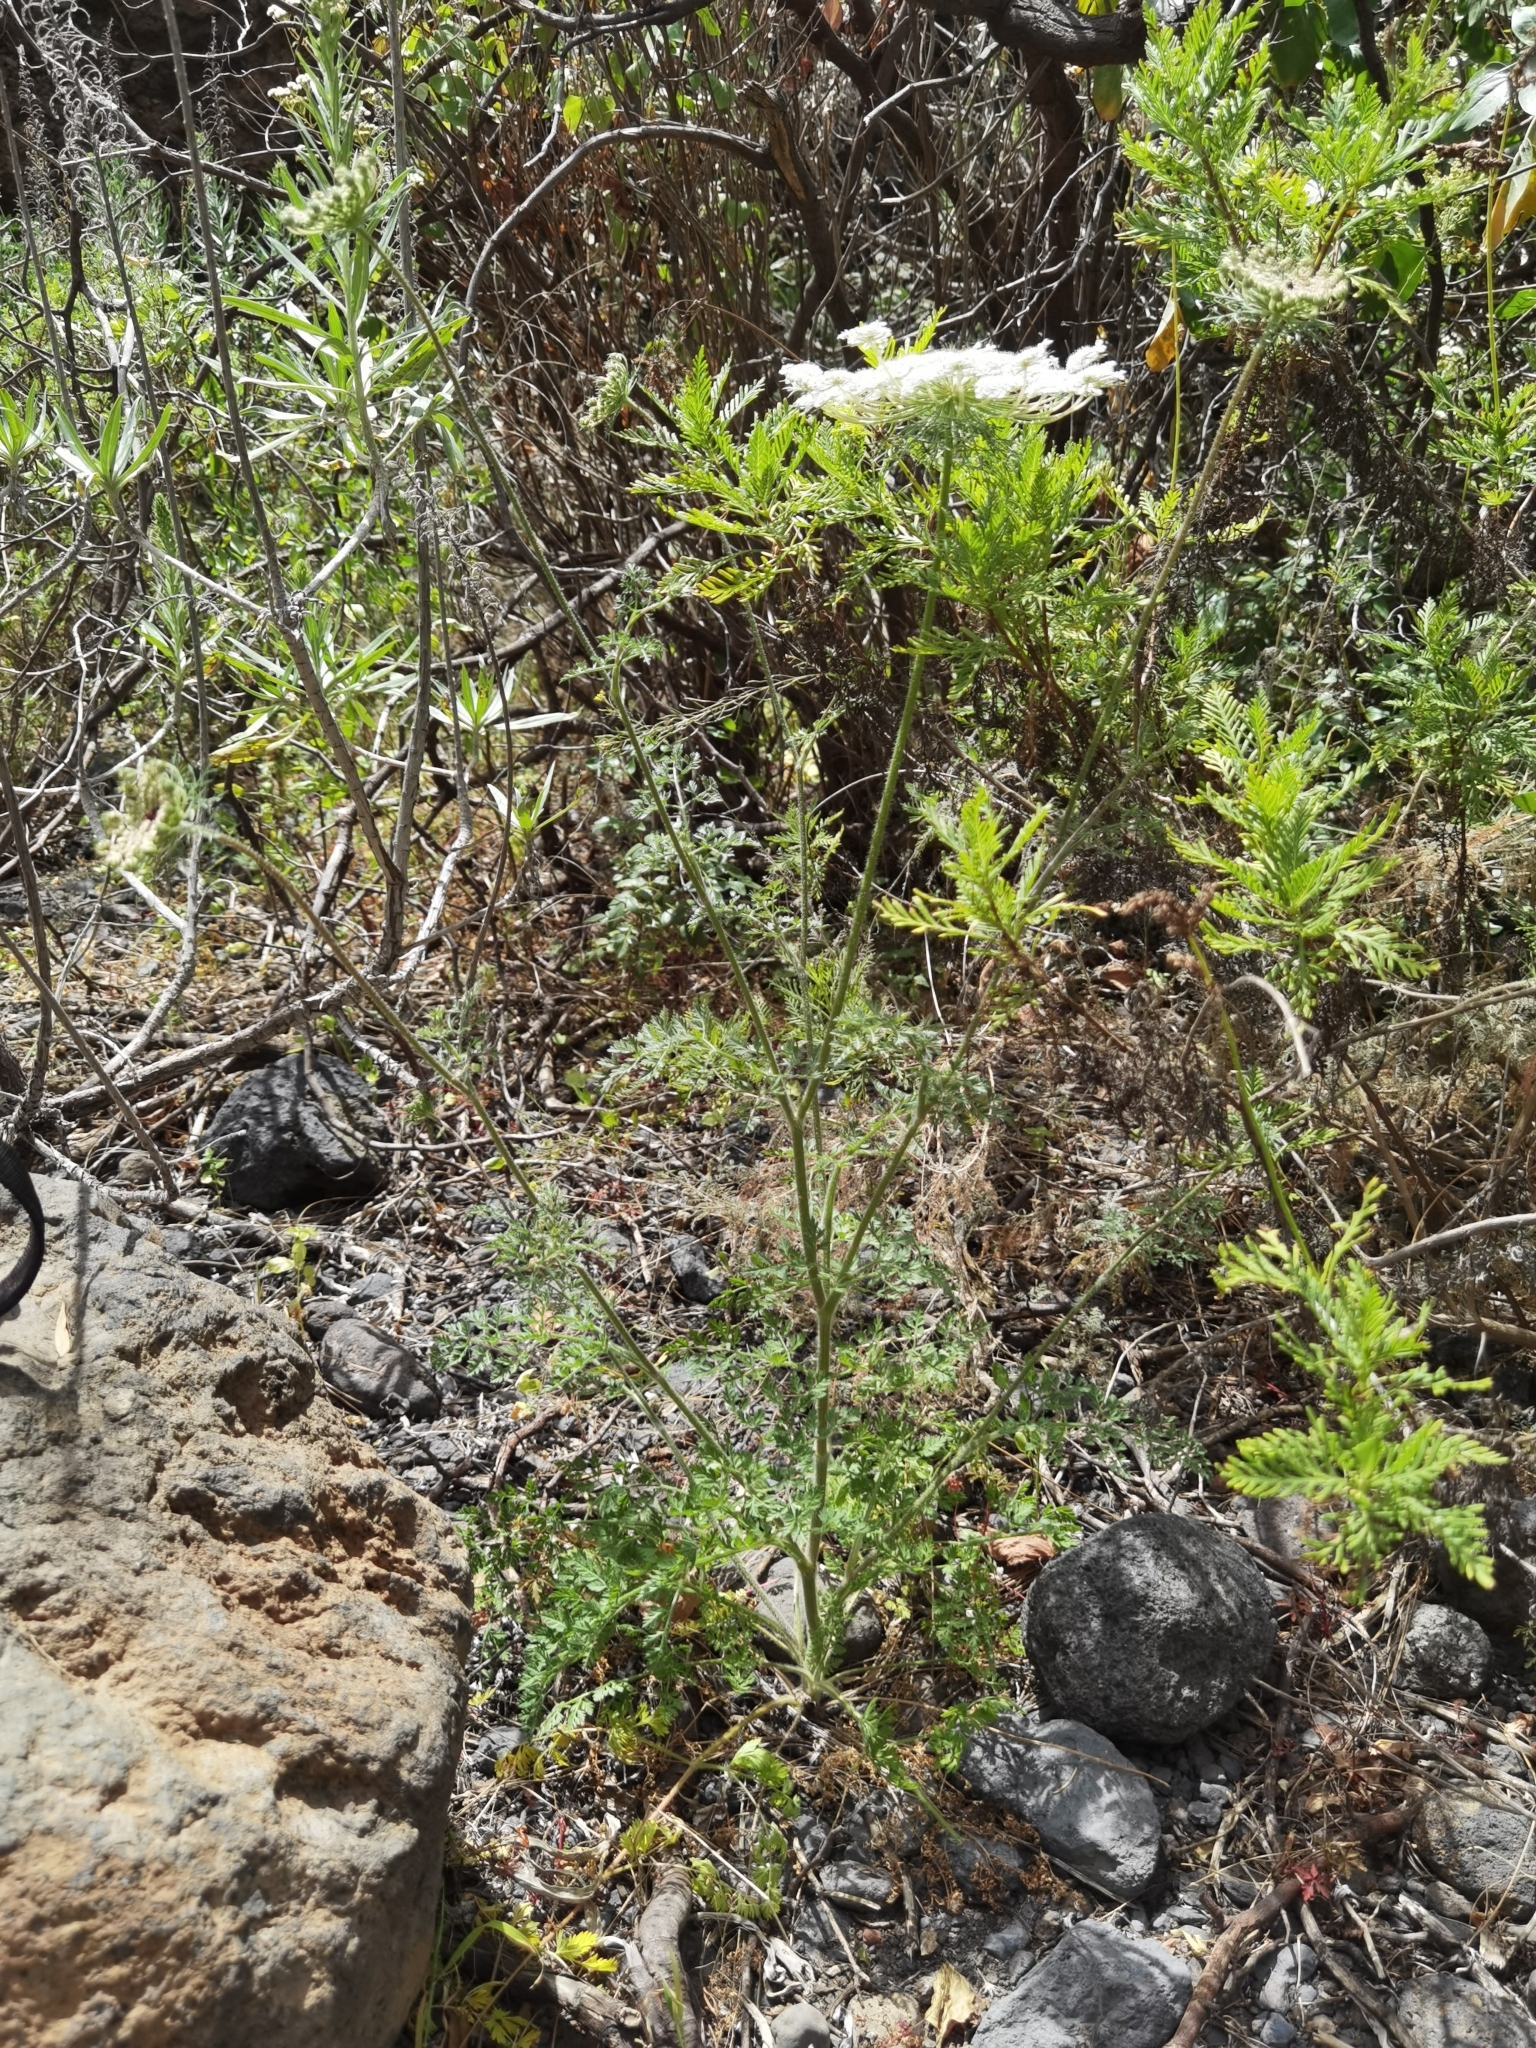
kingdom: Plantae
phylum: Tracheophyta
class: Magnoliopsida
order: Apiales
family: Apiaceae
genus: Daucus
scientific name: Daucus carota
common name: Wild carrot
